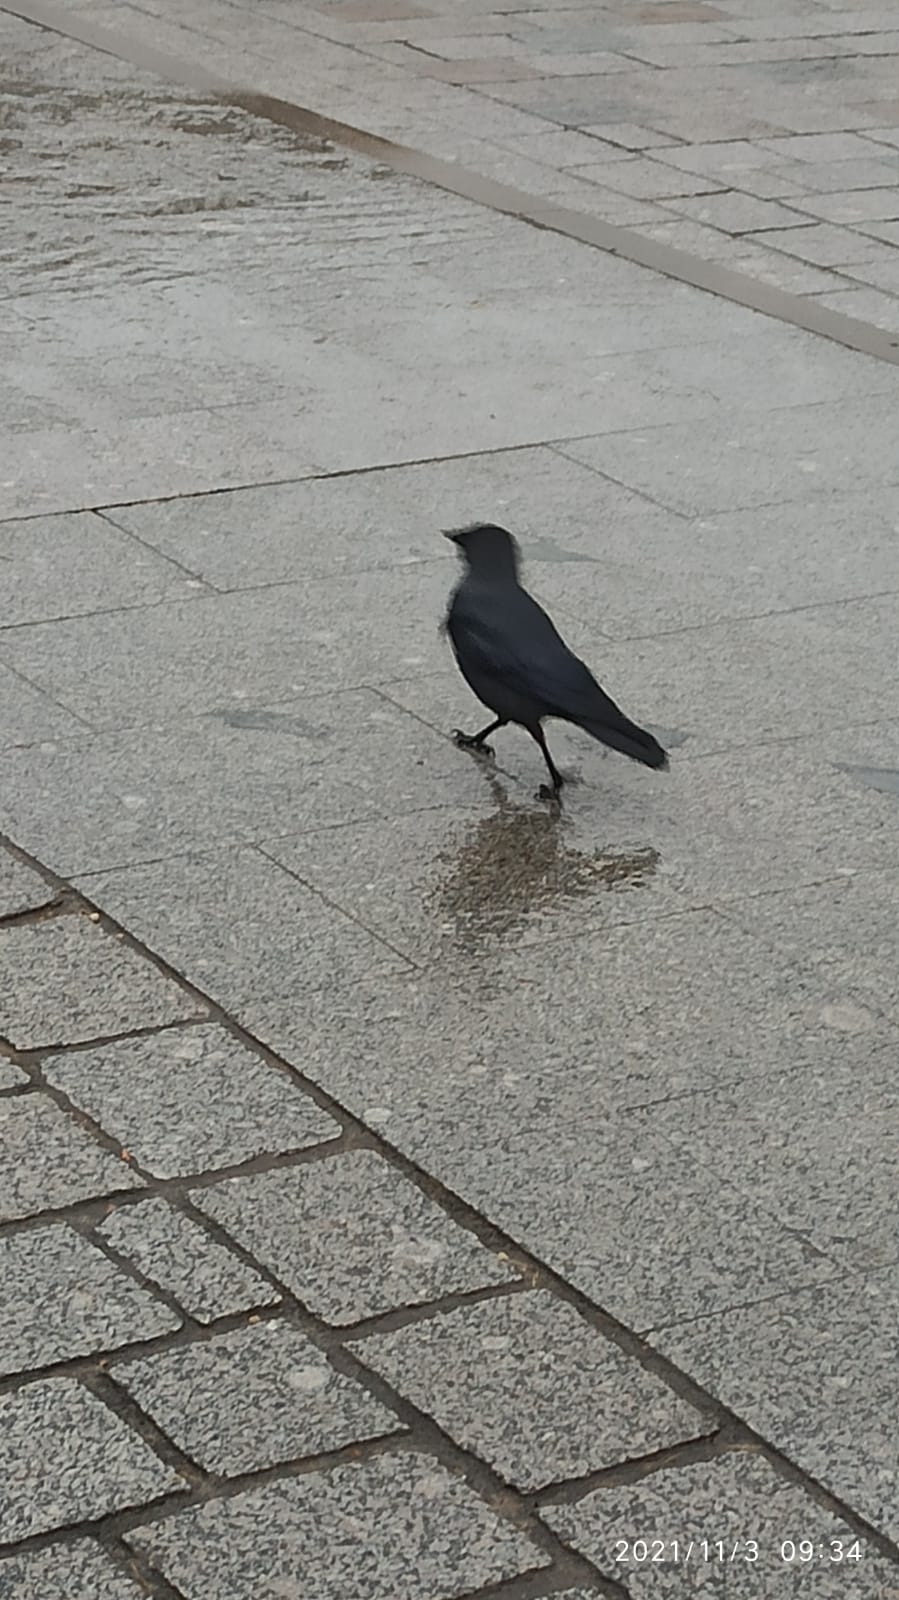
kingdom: Animalia
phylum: Chordata
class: Aves
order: Passeriformes
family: Corvidae
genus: Coloeus
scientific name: Coloeus monedula
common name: Western jackdaw
